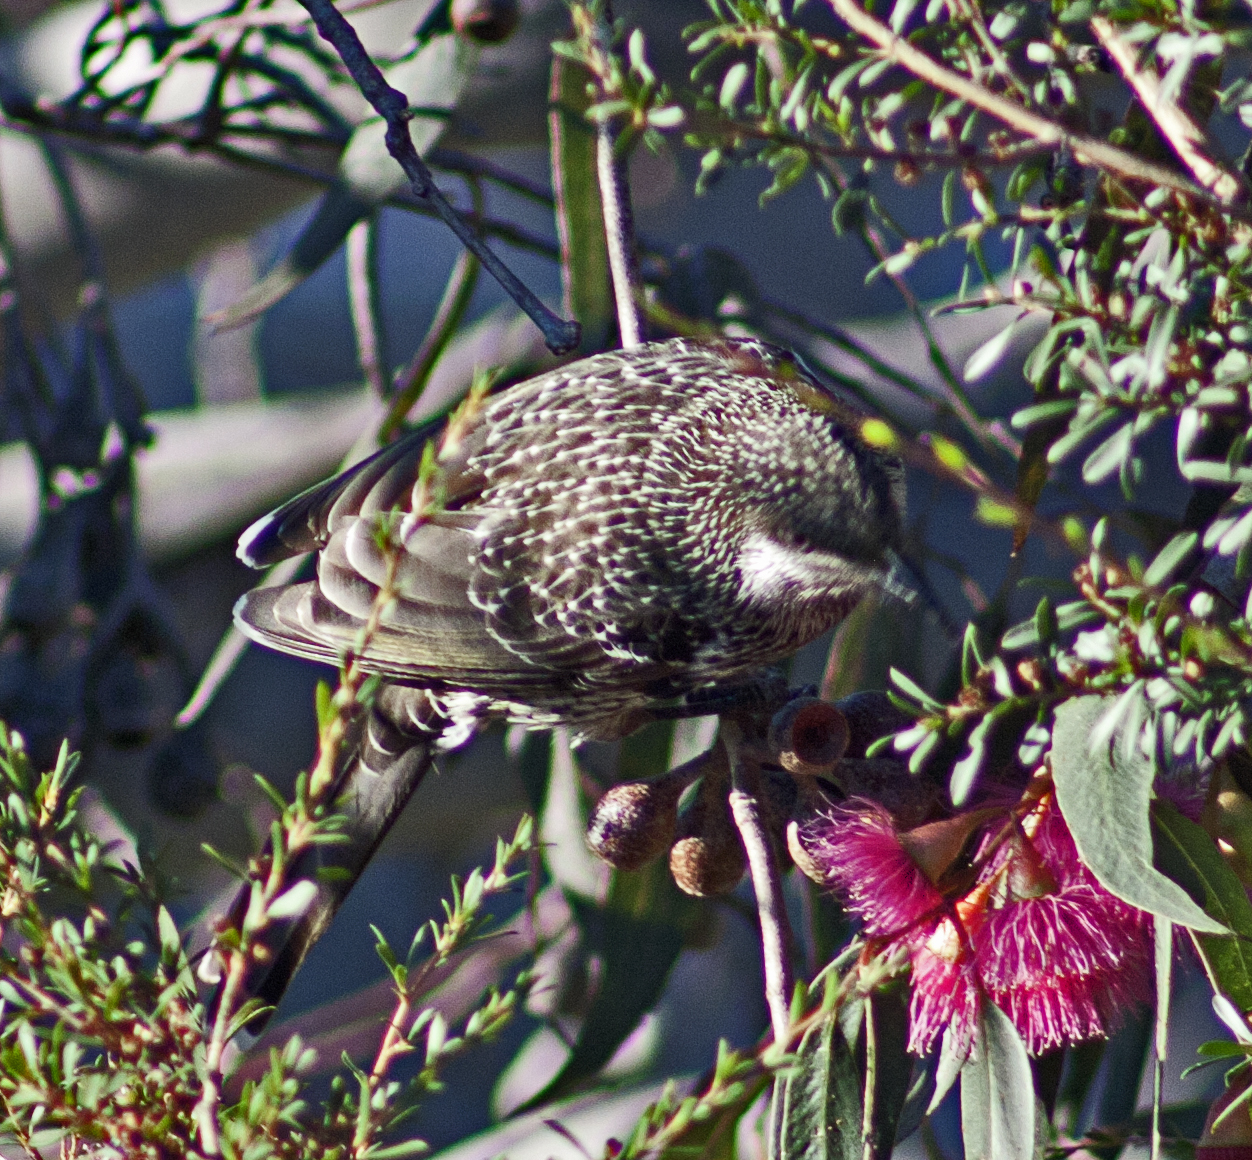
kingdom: Animalia
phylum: Chordata
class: Aves
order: Passeriformes
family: Meliphagidae
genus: Anthochaera
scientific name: Anthochaera chrysoptera
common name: Little wattlebird
